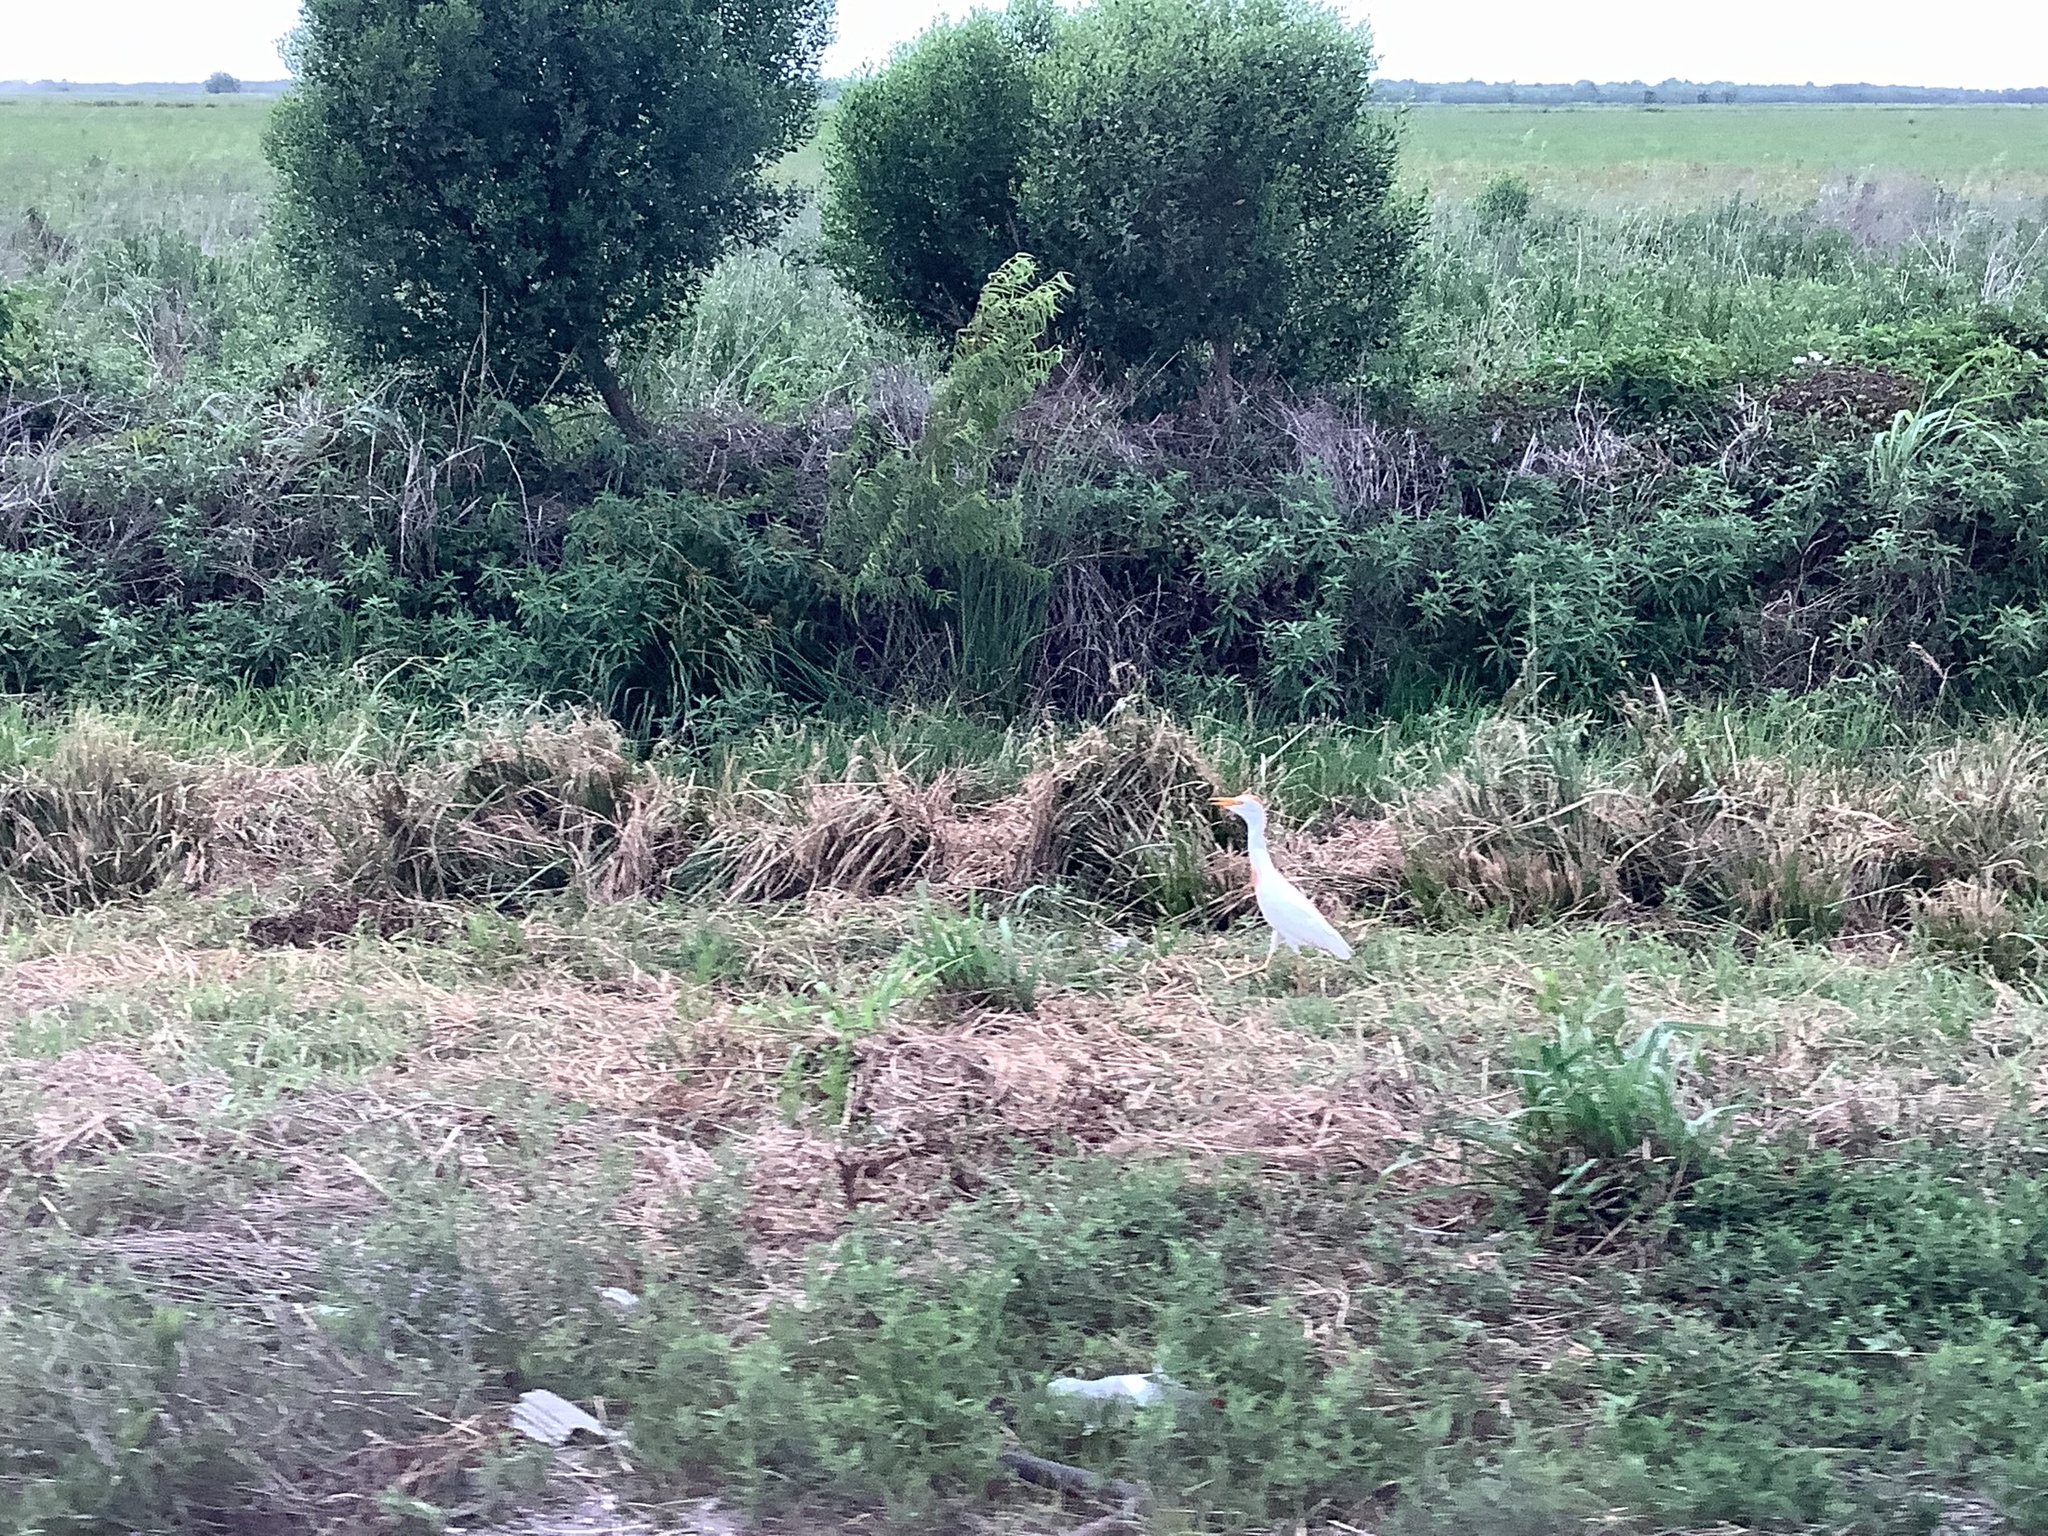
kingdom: Animalia
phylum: Chordata
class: Aves
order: Pelecaniformes
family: Ardeidae
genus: Bubulcus
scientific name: Bubulcus ibis
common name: Cattle egret
